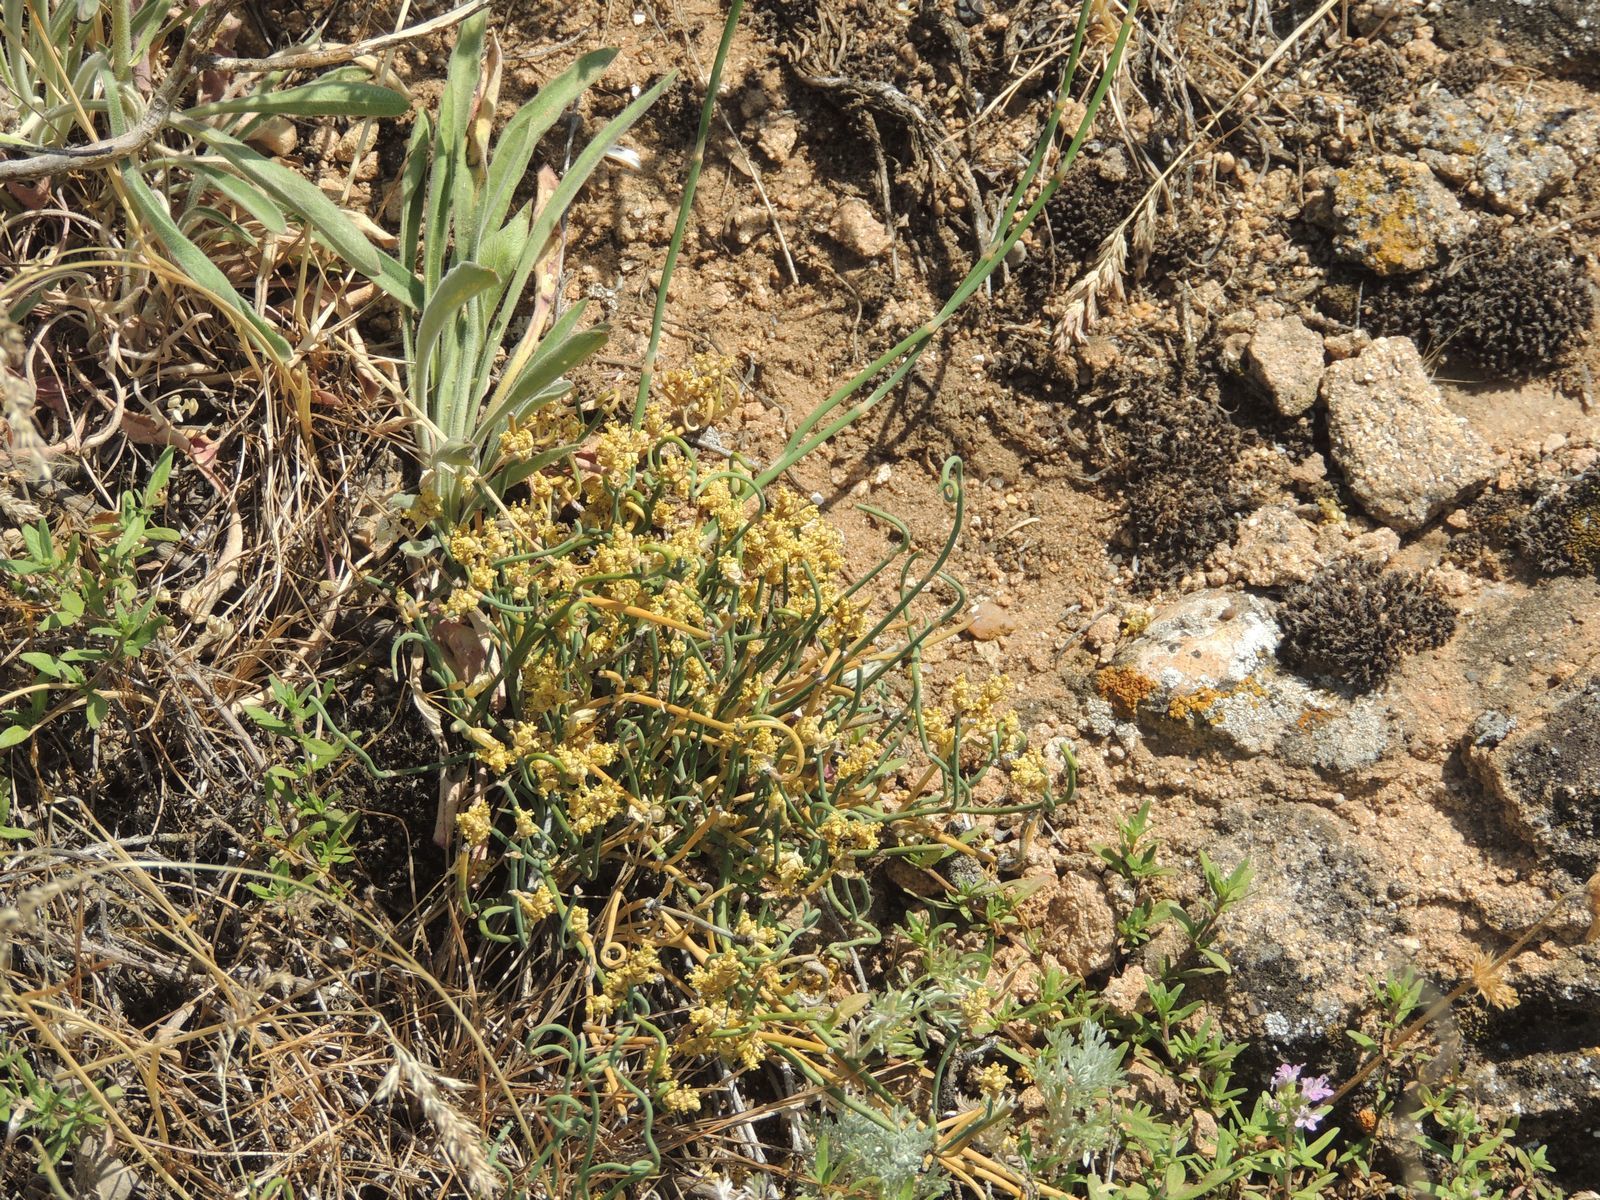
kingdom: Plantae
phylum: Tracheophyta
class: Gnetopsida
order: Ephedrales
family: Ephedraceae
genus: Ephedra
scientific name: Ephedra distachya
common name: Sea grape
